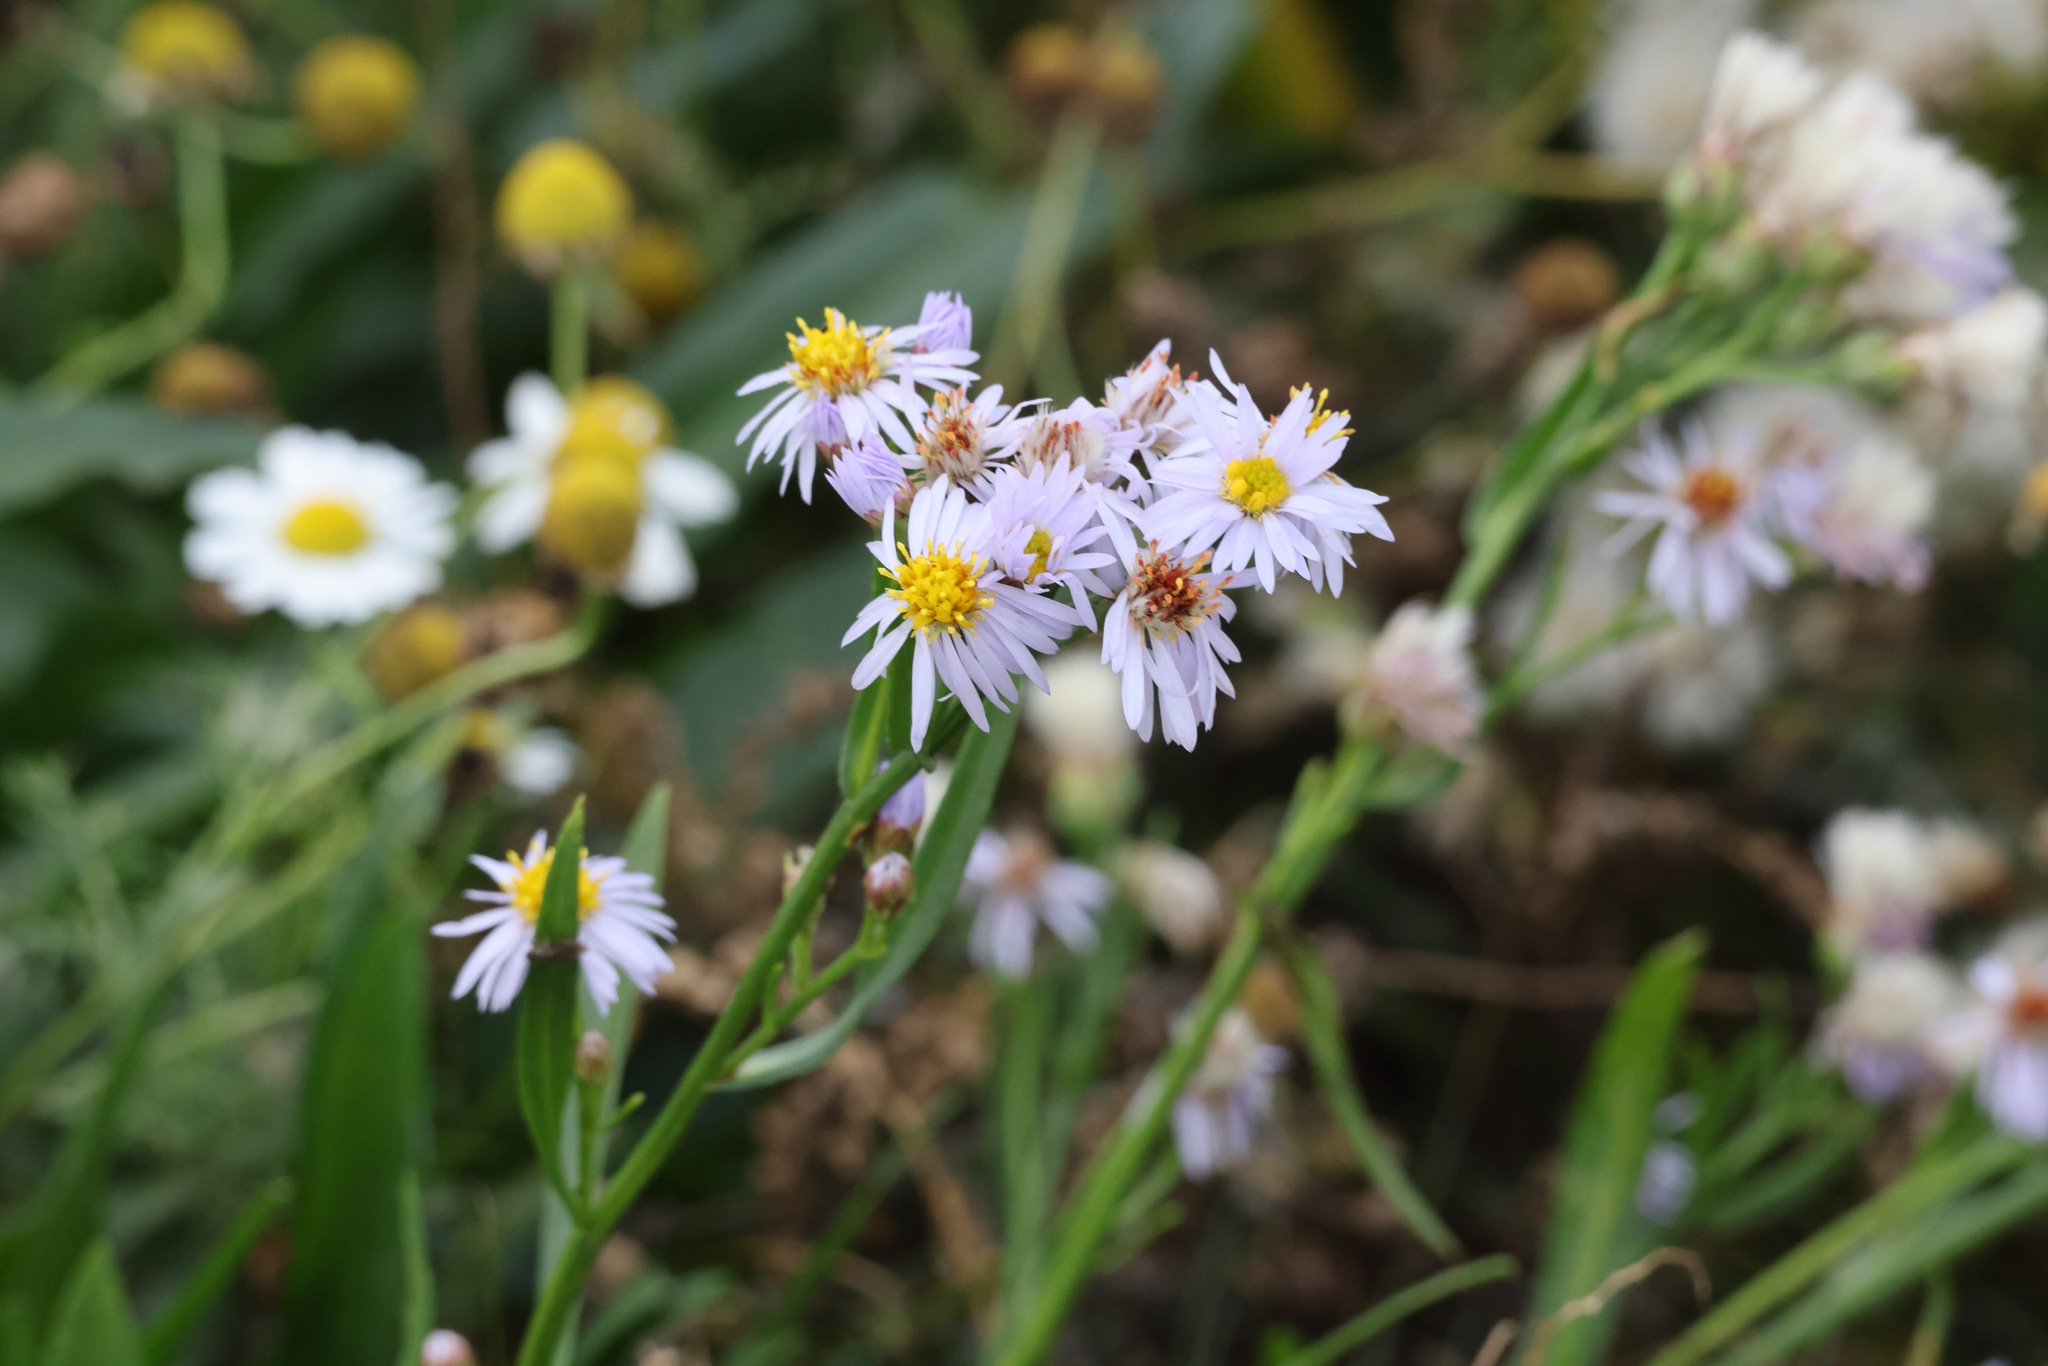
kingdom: Plantae
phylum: Tracheophyta
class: Magnoliopsida
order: Asterales
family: Asteraceae
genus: Tripolium
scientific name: Tripolium pannonicum
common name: Sea aster
